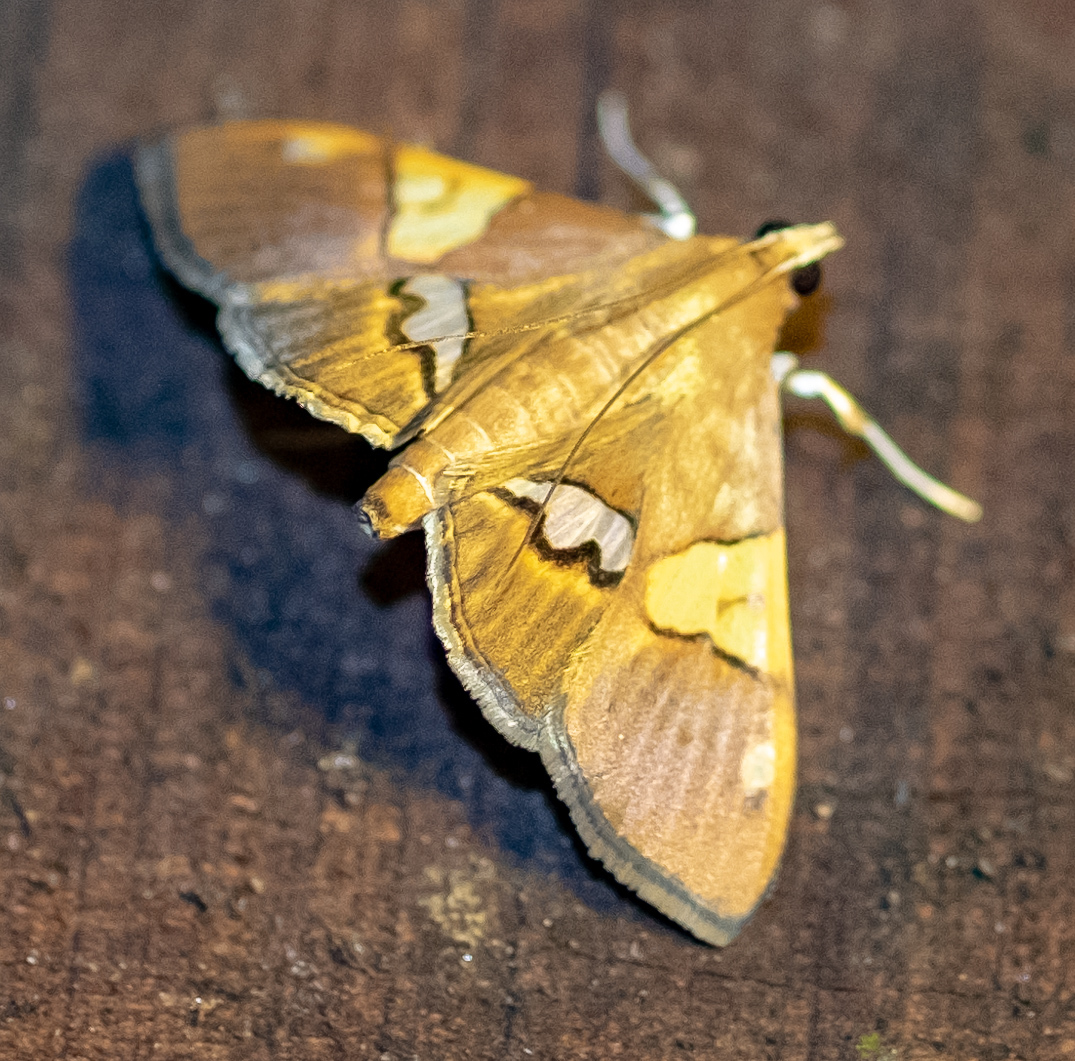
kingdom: Animalia
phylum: Arthropoda
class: Insecta
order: Lepidoptera
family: Crambidae
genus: Heterocnephes
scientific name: Heterocnephes lymphatalis
